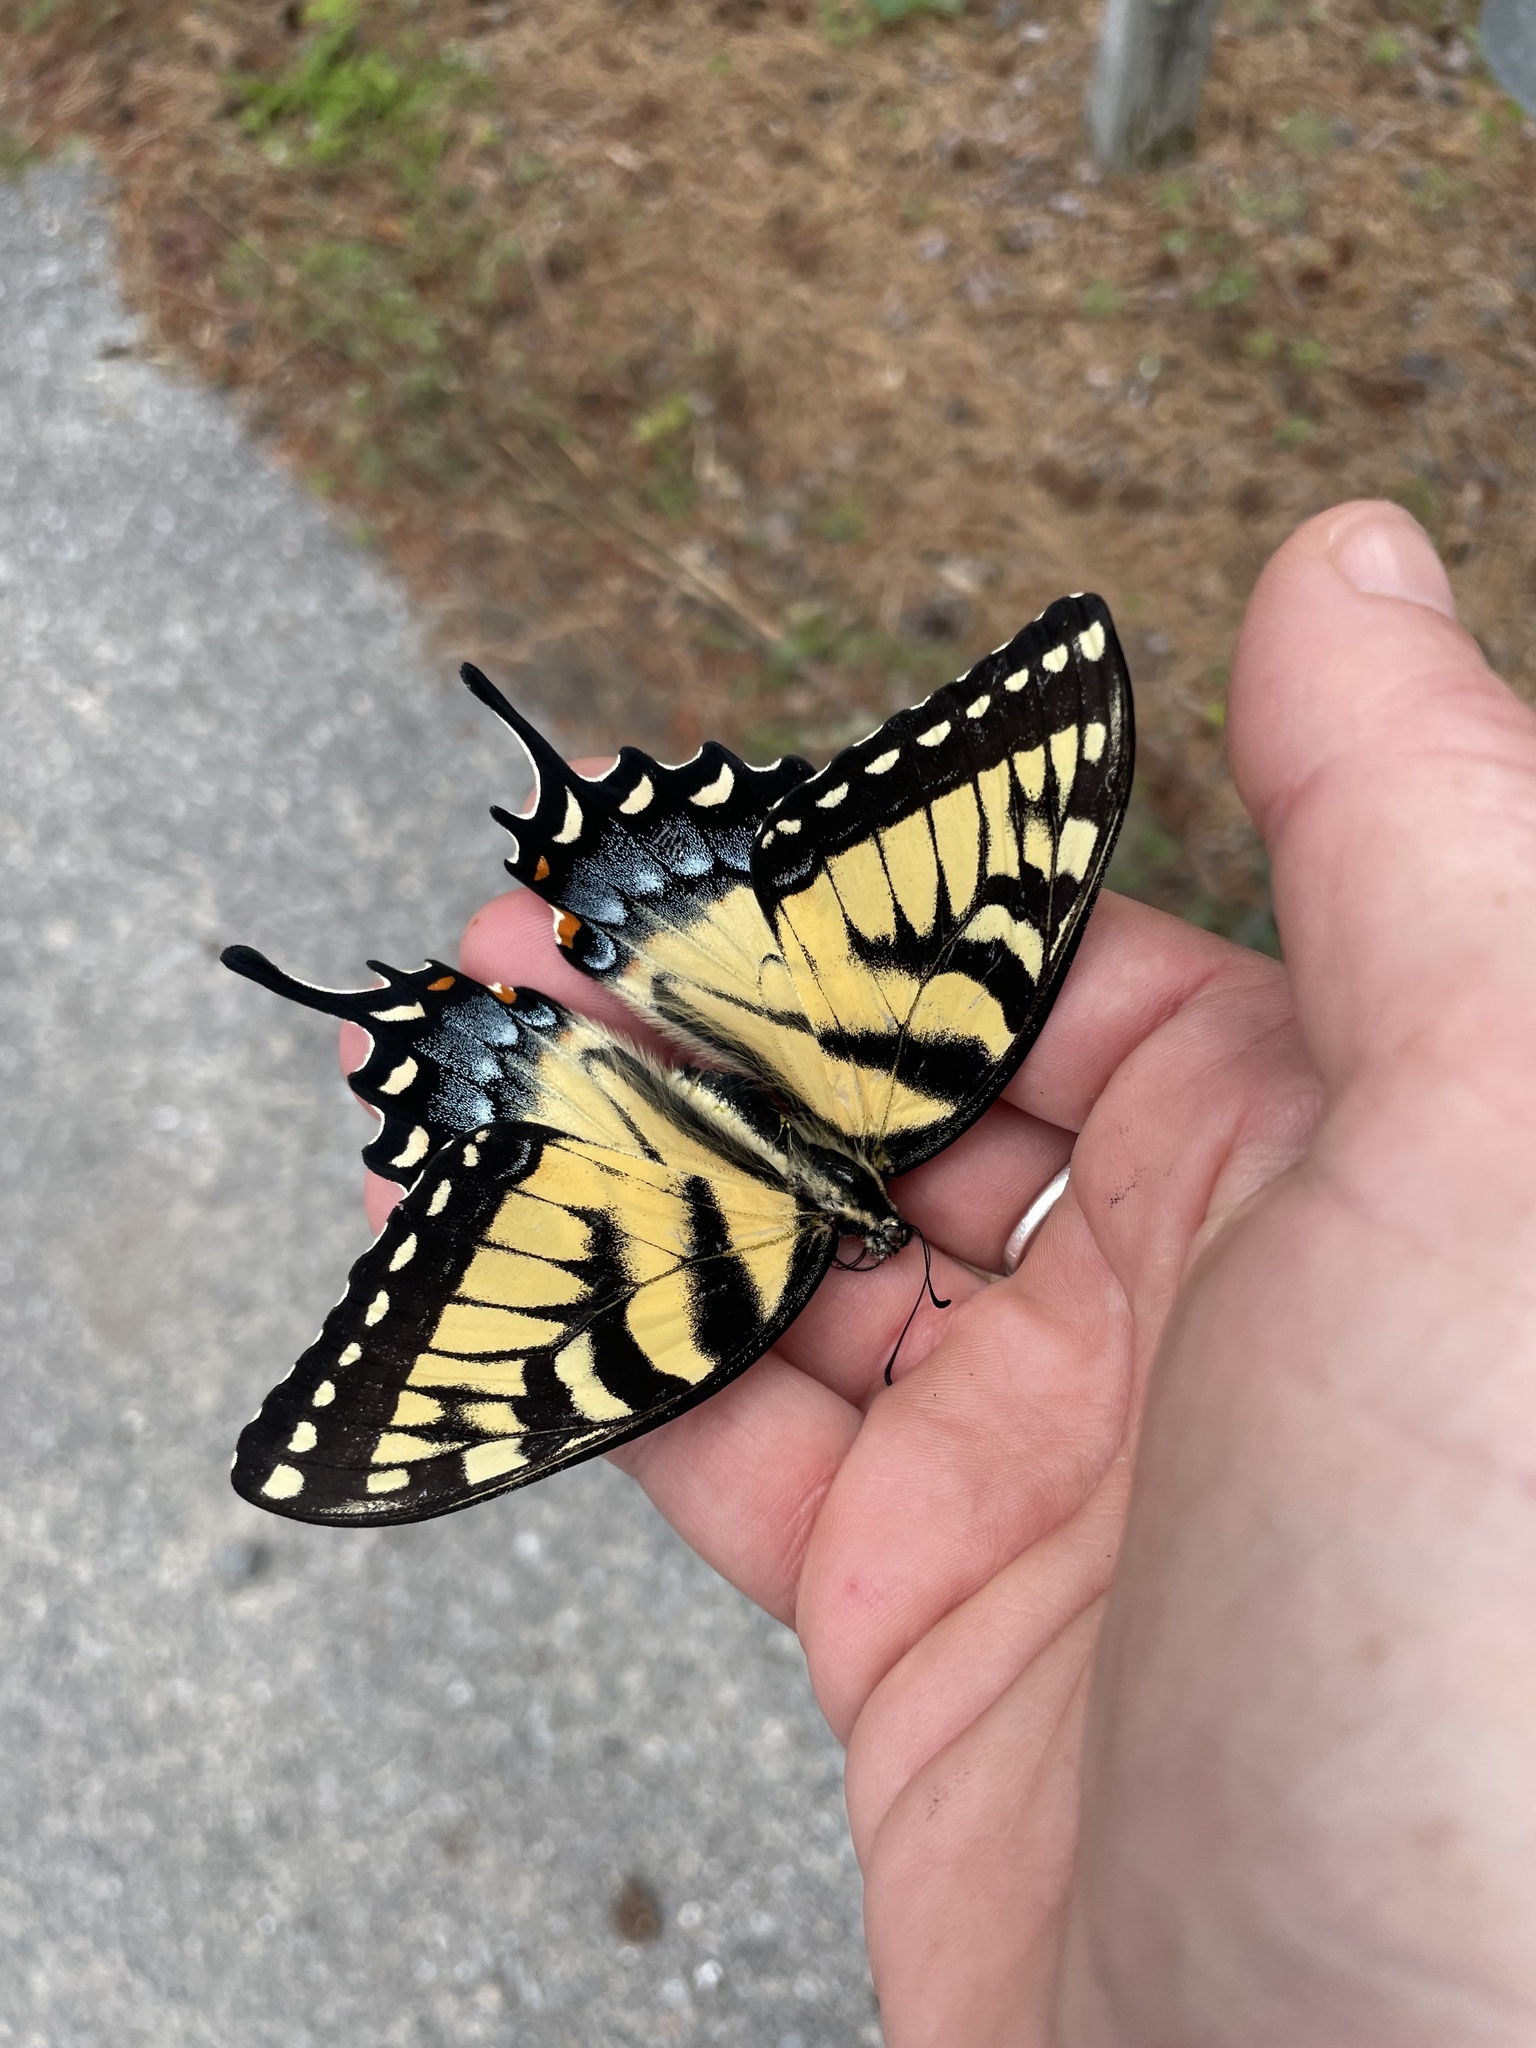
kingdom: Animalia
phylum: Arthropoda
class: Insecta
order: Lepidoptera
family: Papilionidae
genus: Papilio
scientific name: Papilio glaucus
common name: Tiger swallowtail
